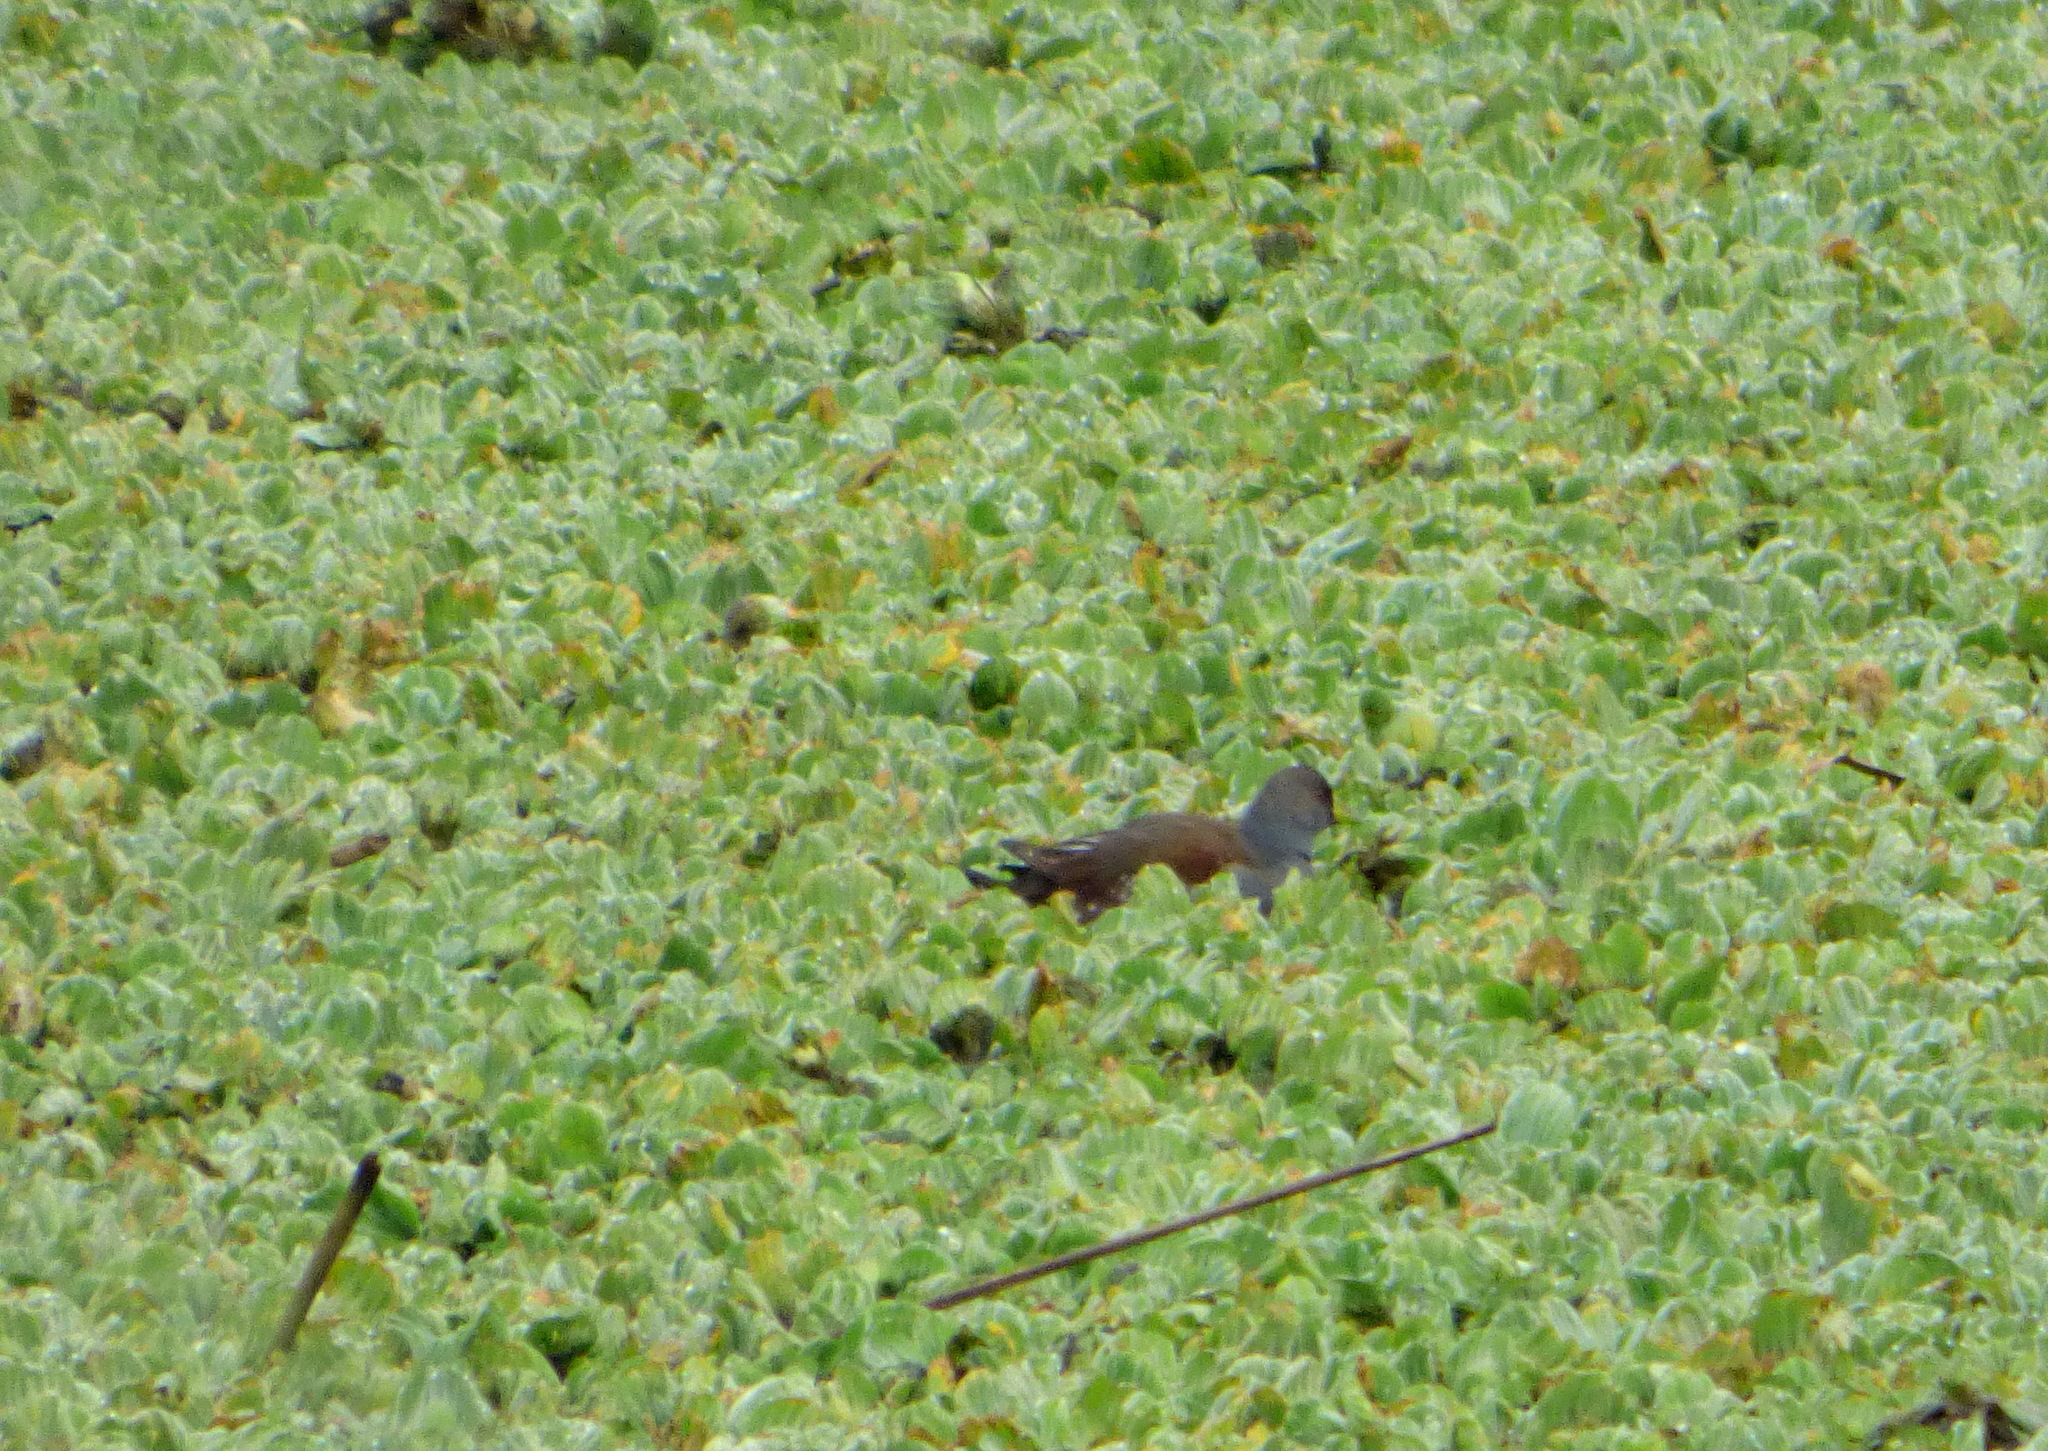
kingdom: Animalia
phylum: Chordata
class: Aves
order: Gruiformes
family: Rallidae
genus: Gallinula
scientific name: Gallinula melanops
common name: Spot-flanked gallinule
